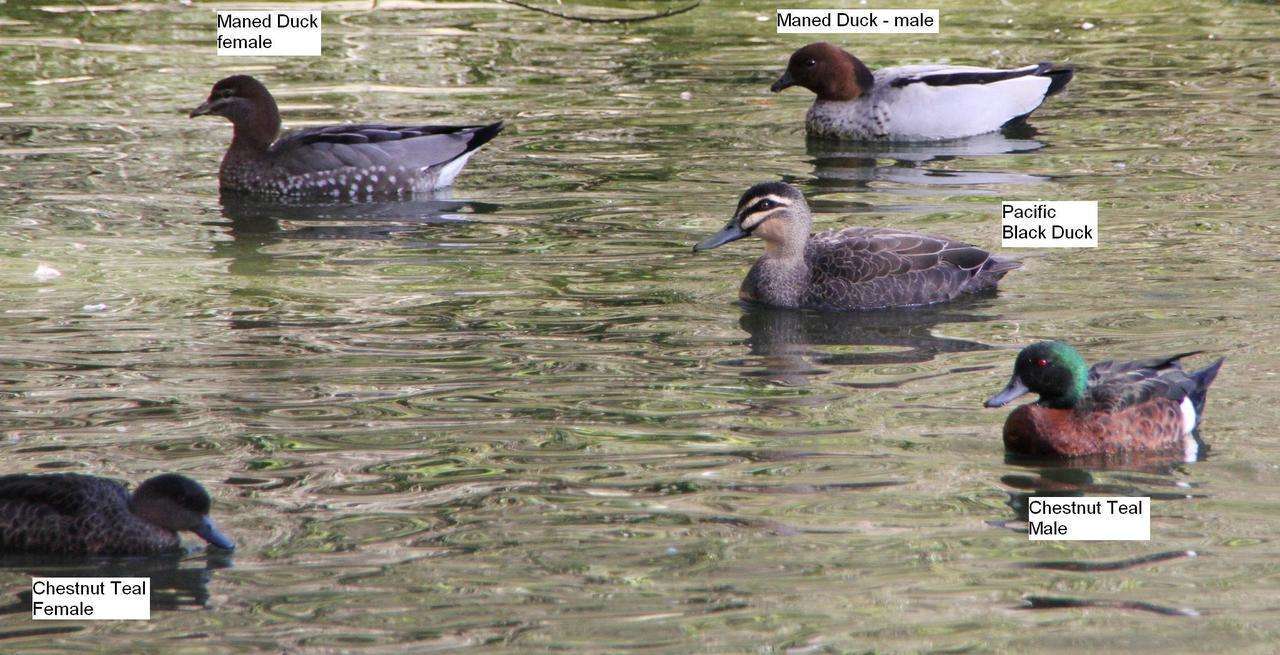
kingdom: Animalia
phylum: Chordata
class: Aves
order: Anseriformes
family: Anatidae
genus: Anas
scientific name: Anas superciliosa
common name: Pacific black duck
